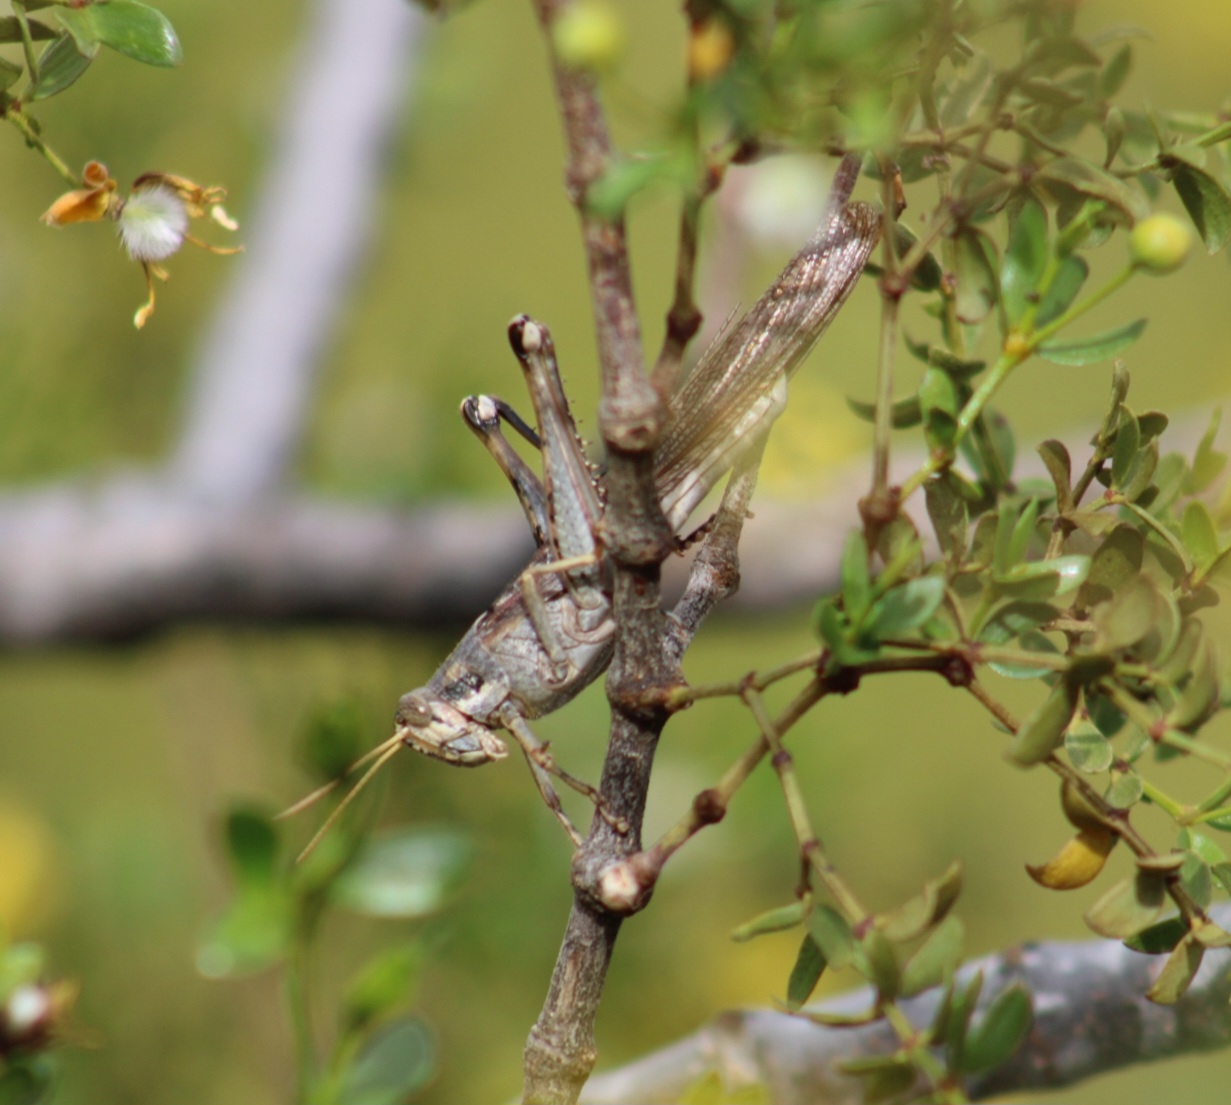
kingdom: Animalia
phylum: Arthropoda
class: Insecta
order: Orthoptera
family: Acrididae
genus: Schistocerca
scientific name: Schistocerca nitens
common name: Vagrant grasshopper
